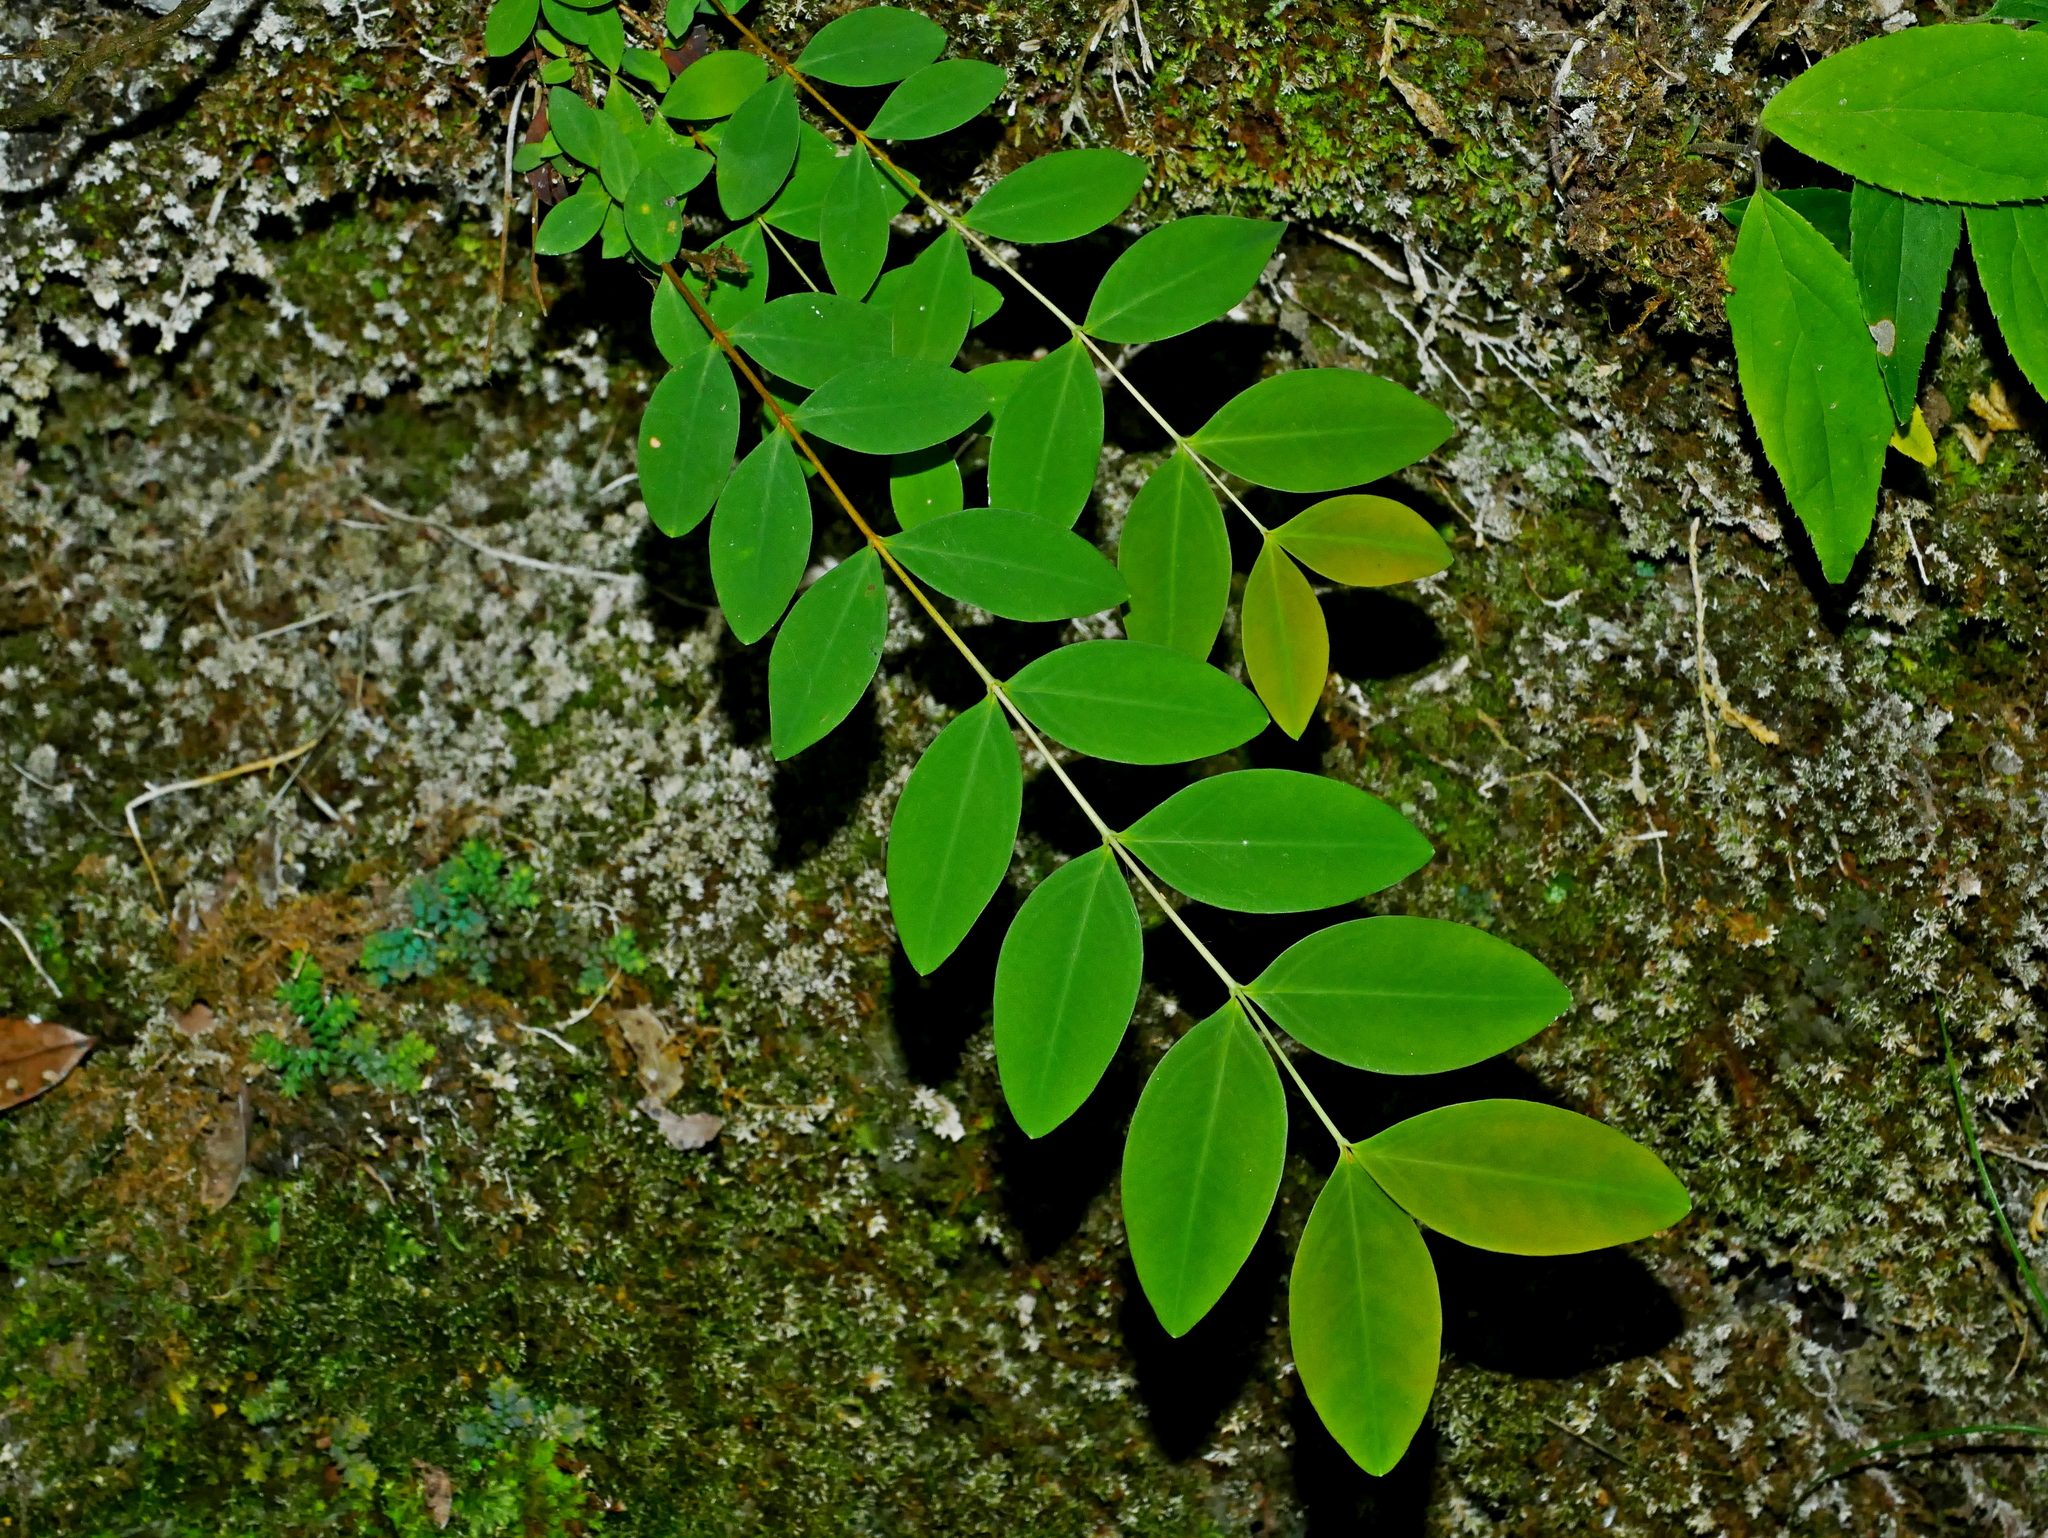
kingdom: Plantae
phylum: Tracheophyta
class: Magnoliopsida
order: Malpighiales
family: Hypericaceae
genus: Hypericum
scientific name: Hypericum geminiflorum
